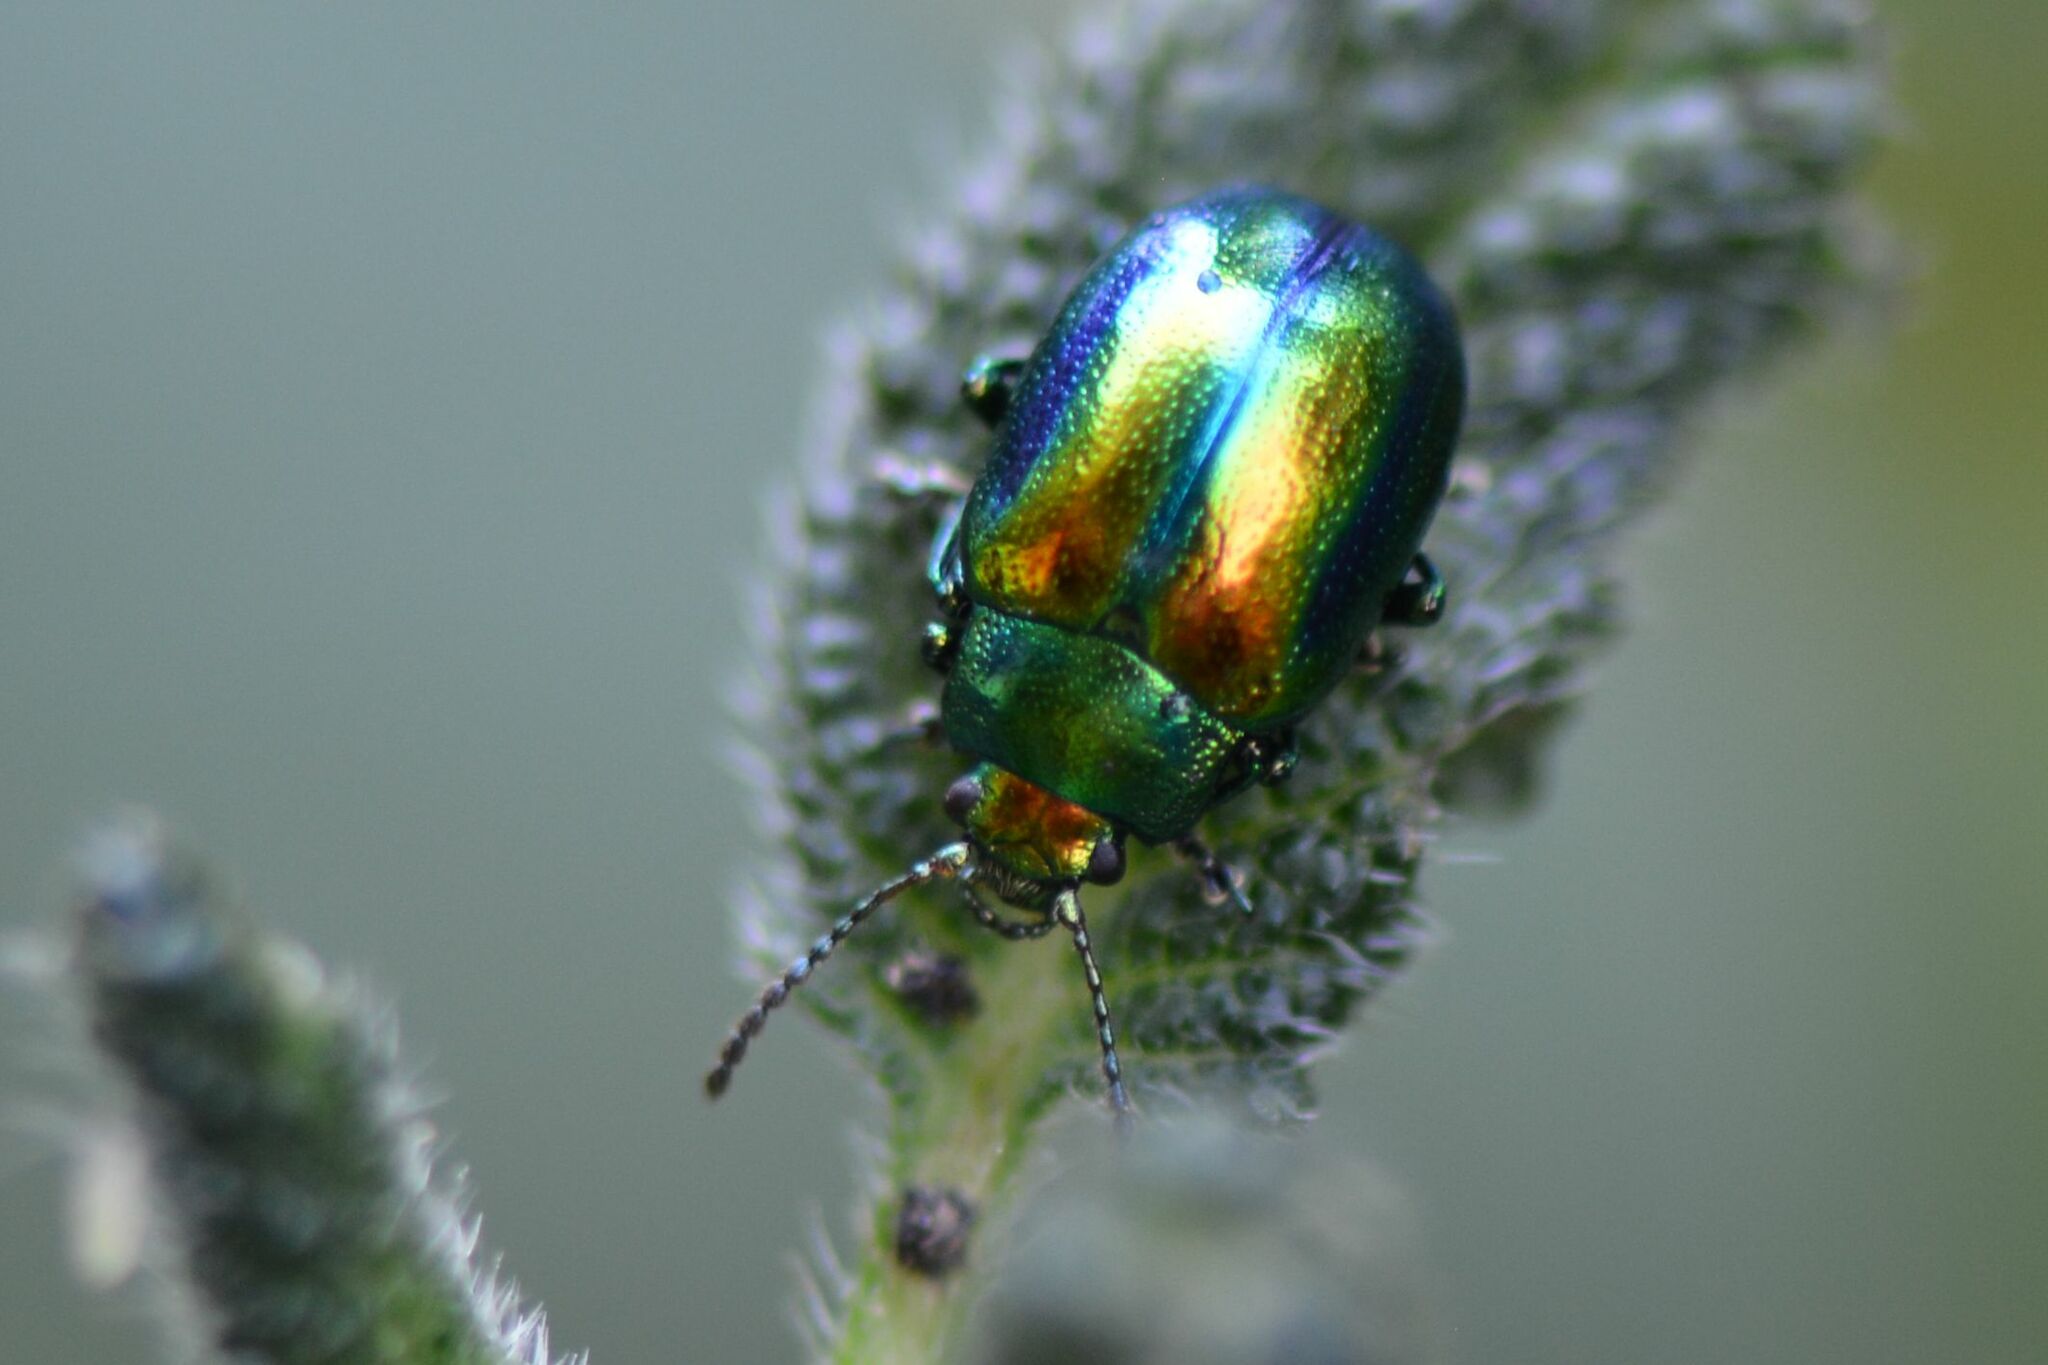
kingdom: Animalia
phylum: Arthropoda
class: Insecta
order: Coleoptera
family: Chrysomelidae
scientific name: Chrysomelidae
